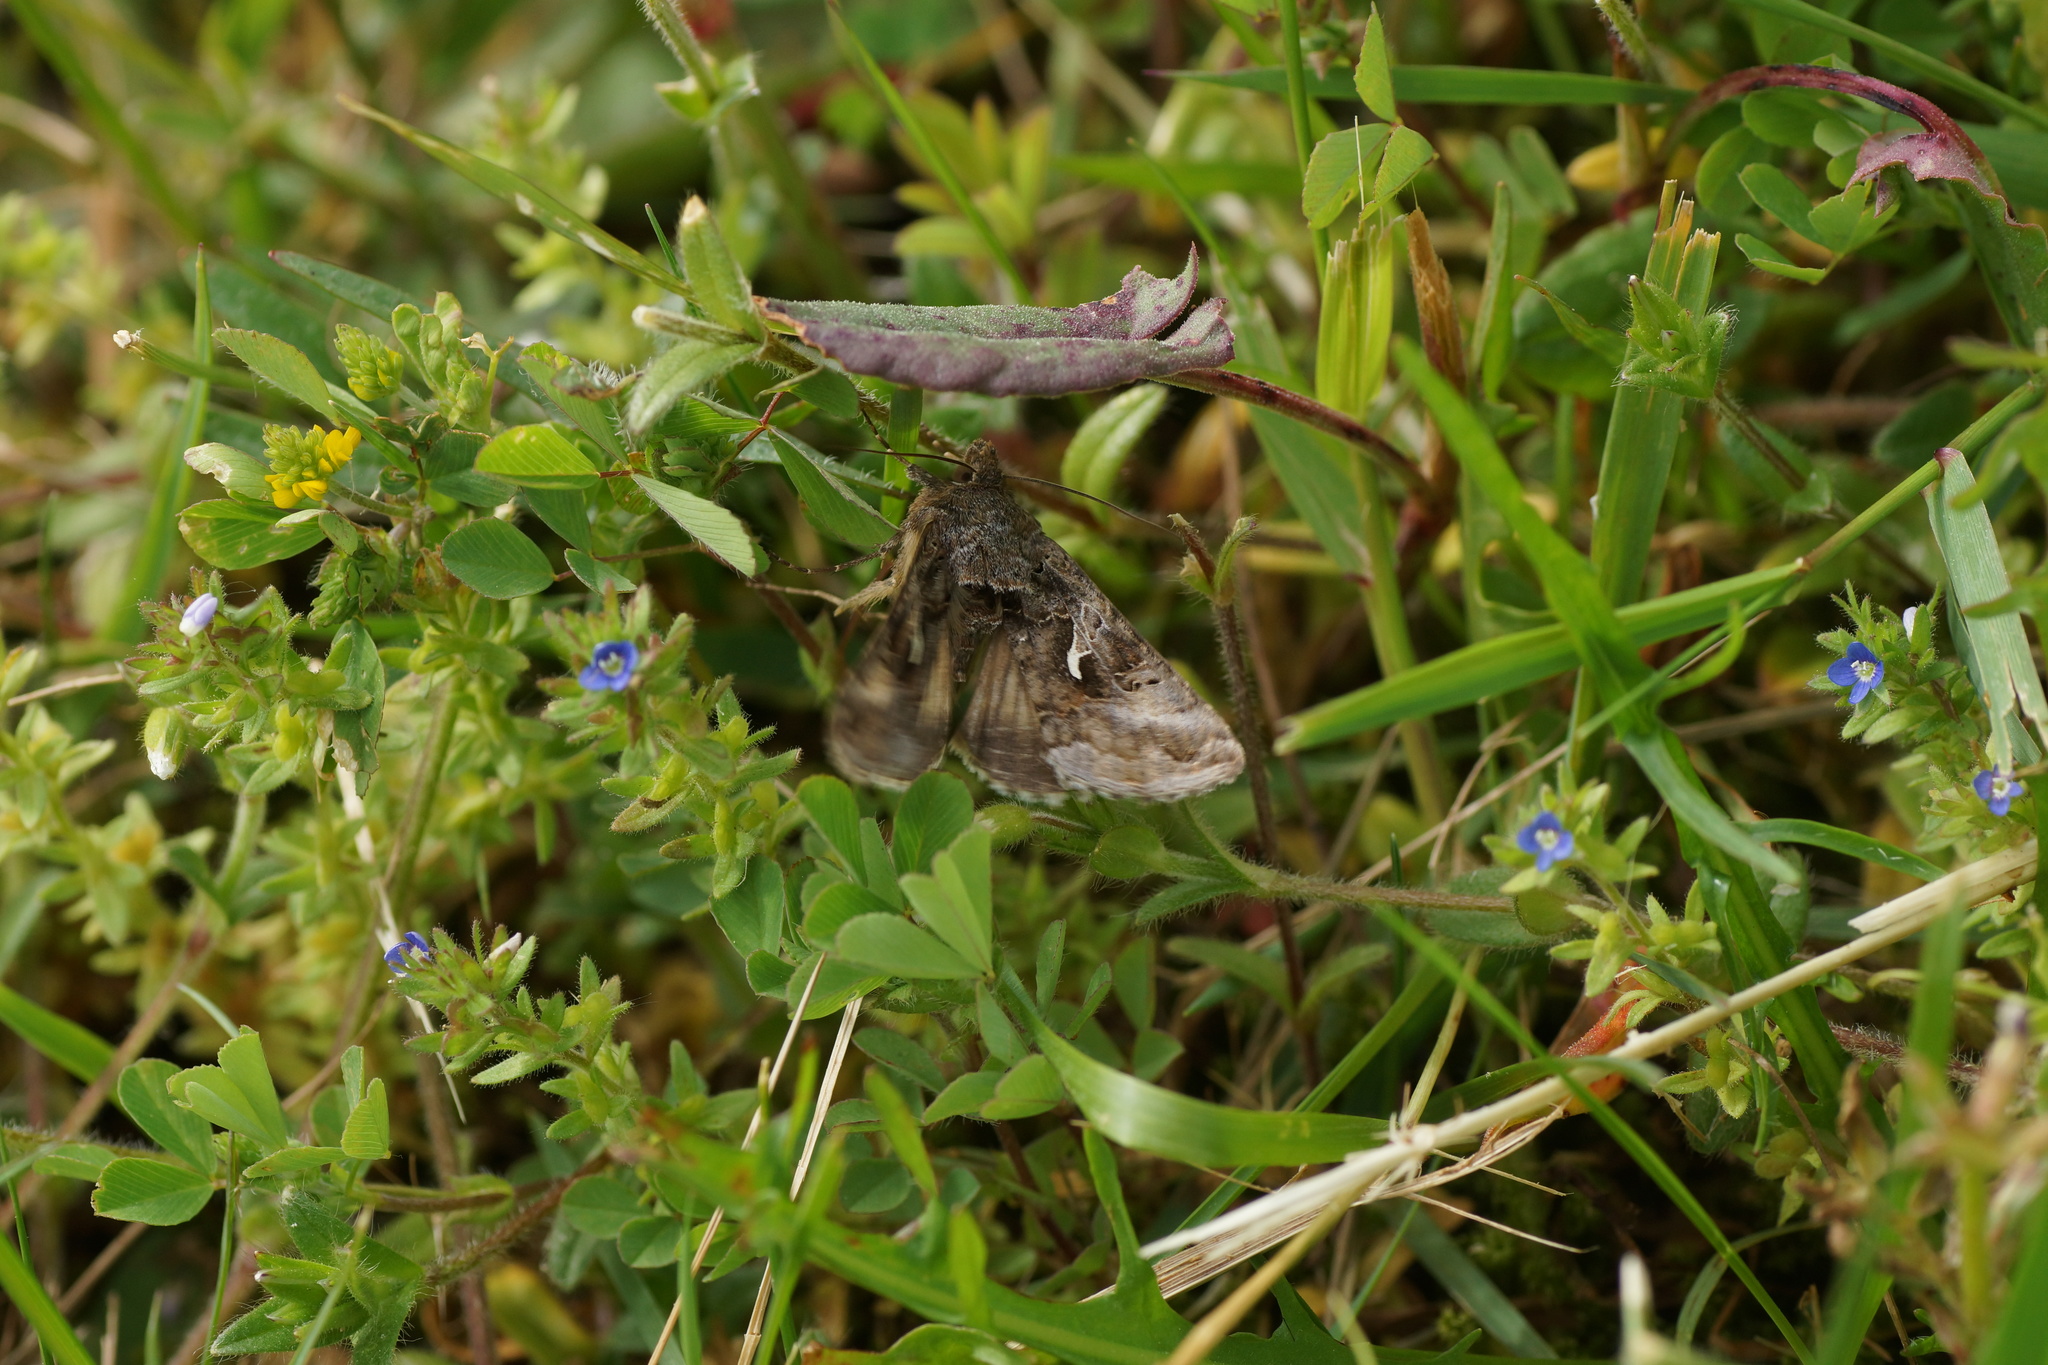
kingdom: Animalia
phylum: Arthropoda
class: Insecta
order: Lepidoptera
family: Noctuidae
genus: Autographa
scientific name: Autographa gamma
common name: Silver y
